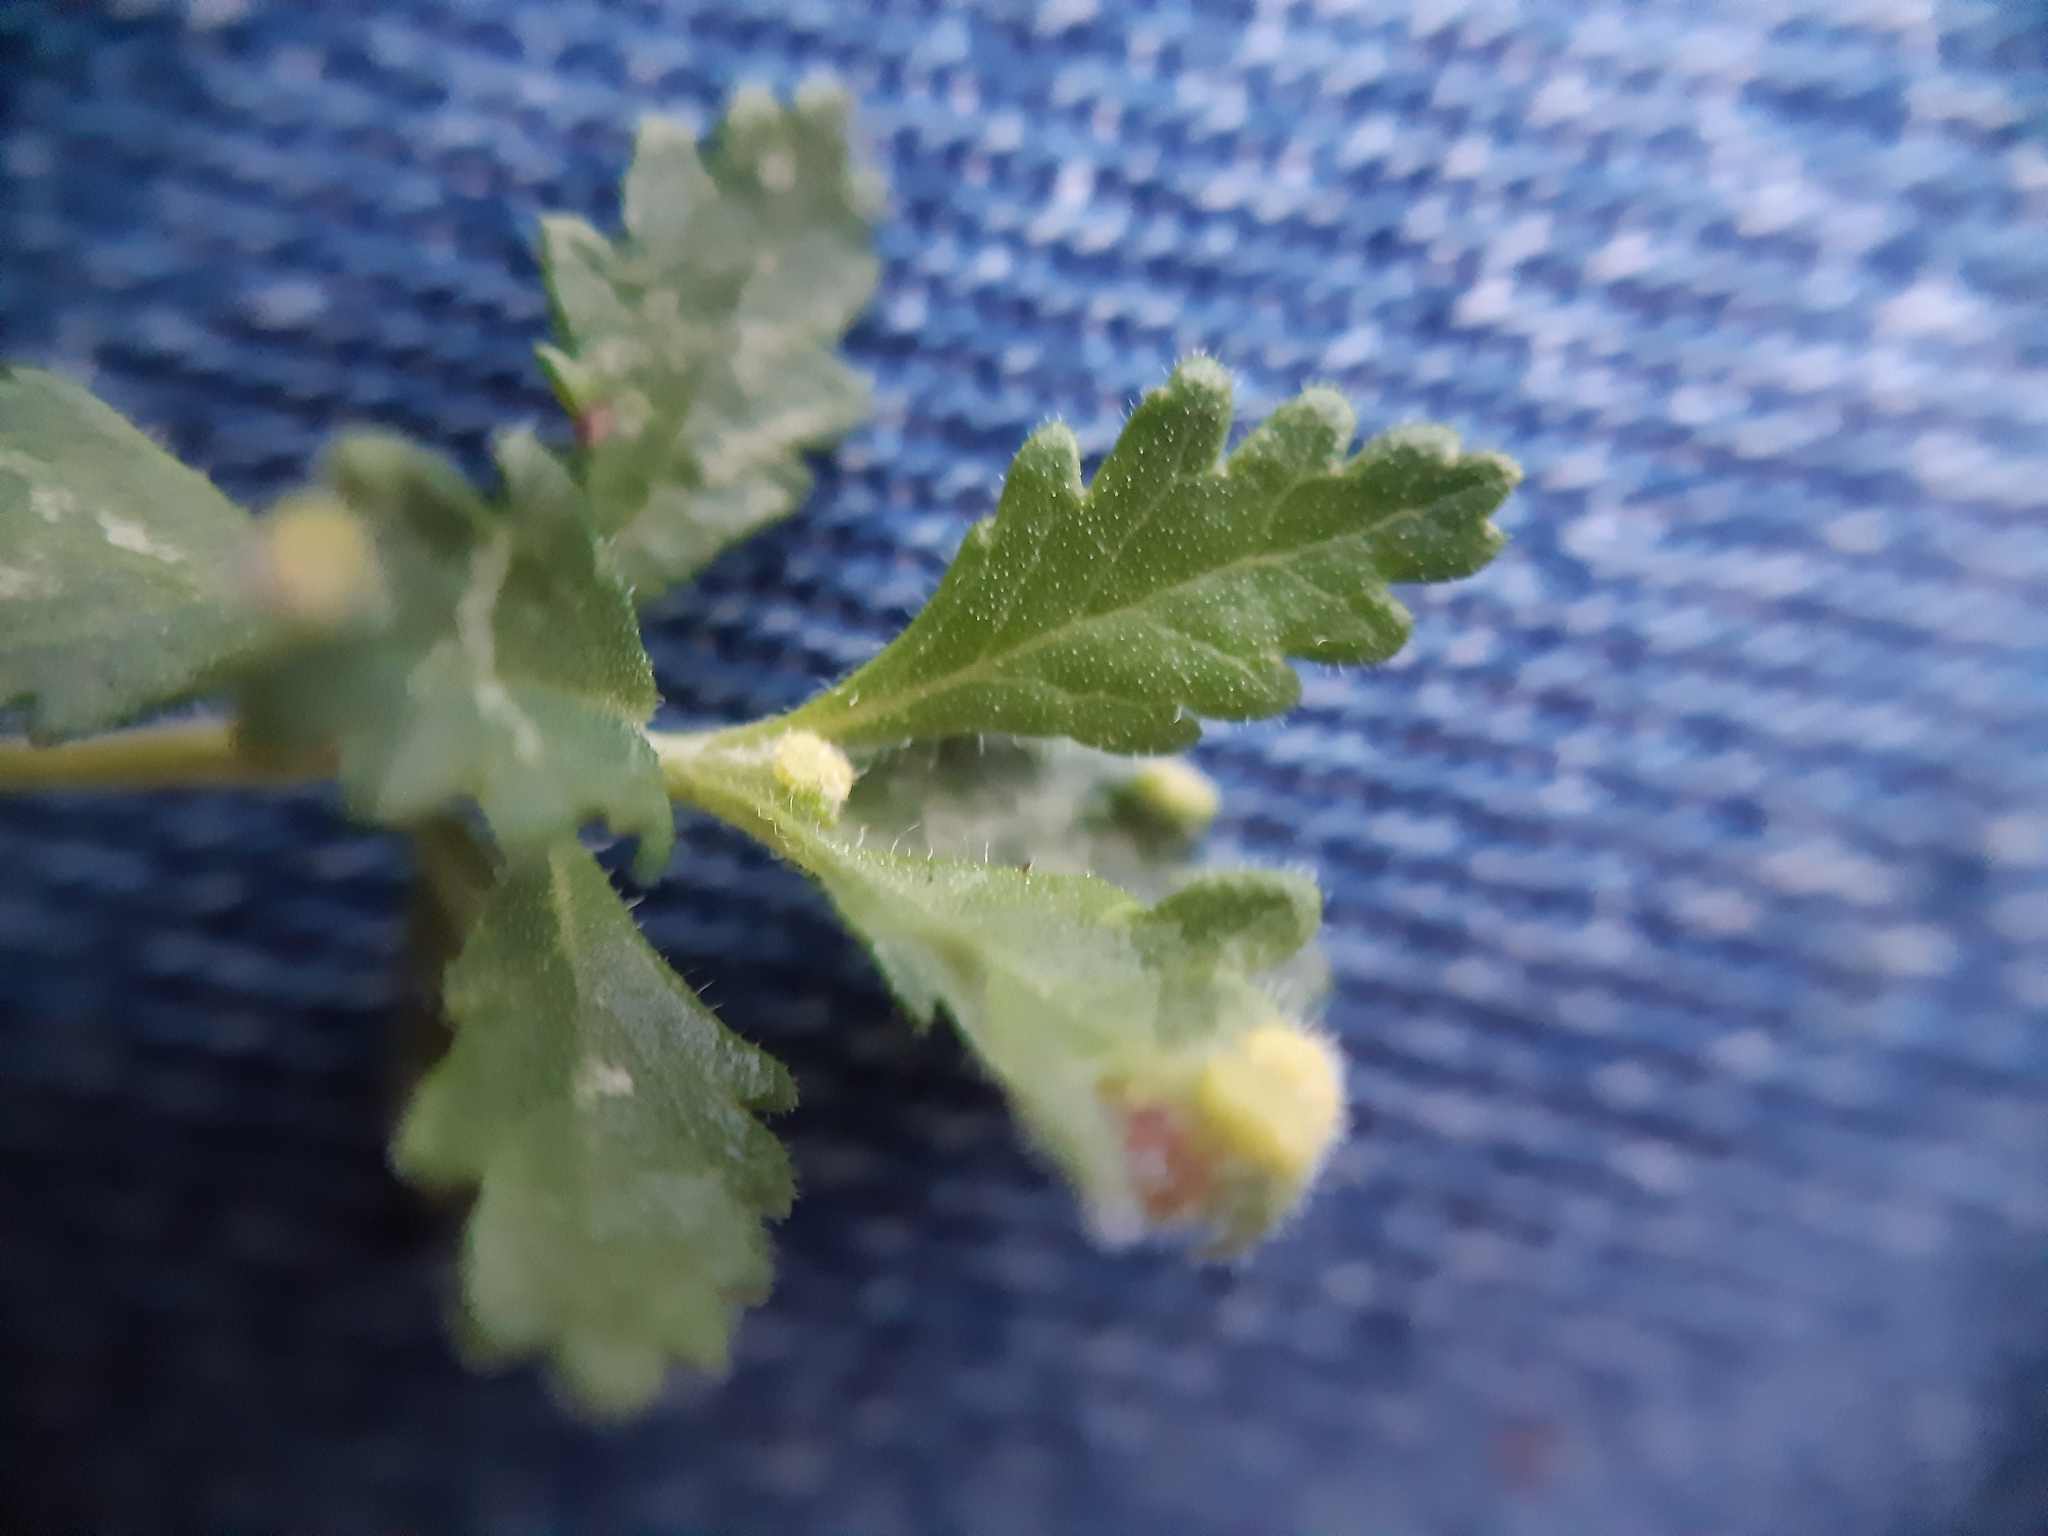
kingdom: Animalia
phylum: Arthropoda
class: Arachnida
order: Trombidiformes
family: Eriophyidae
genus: Aculus
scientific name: Aculus teucrii
